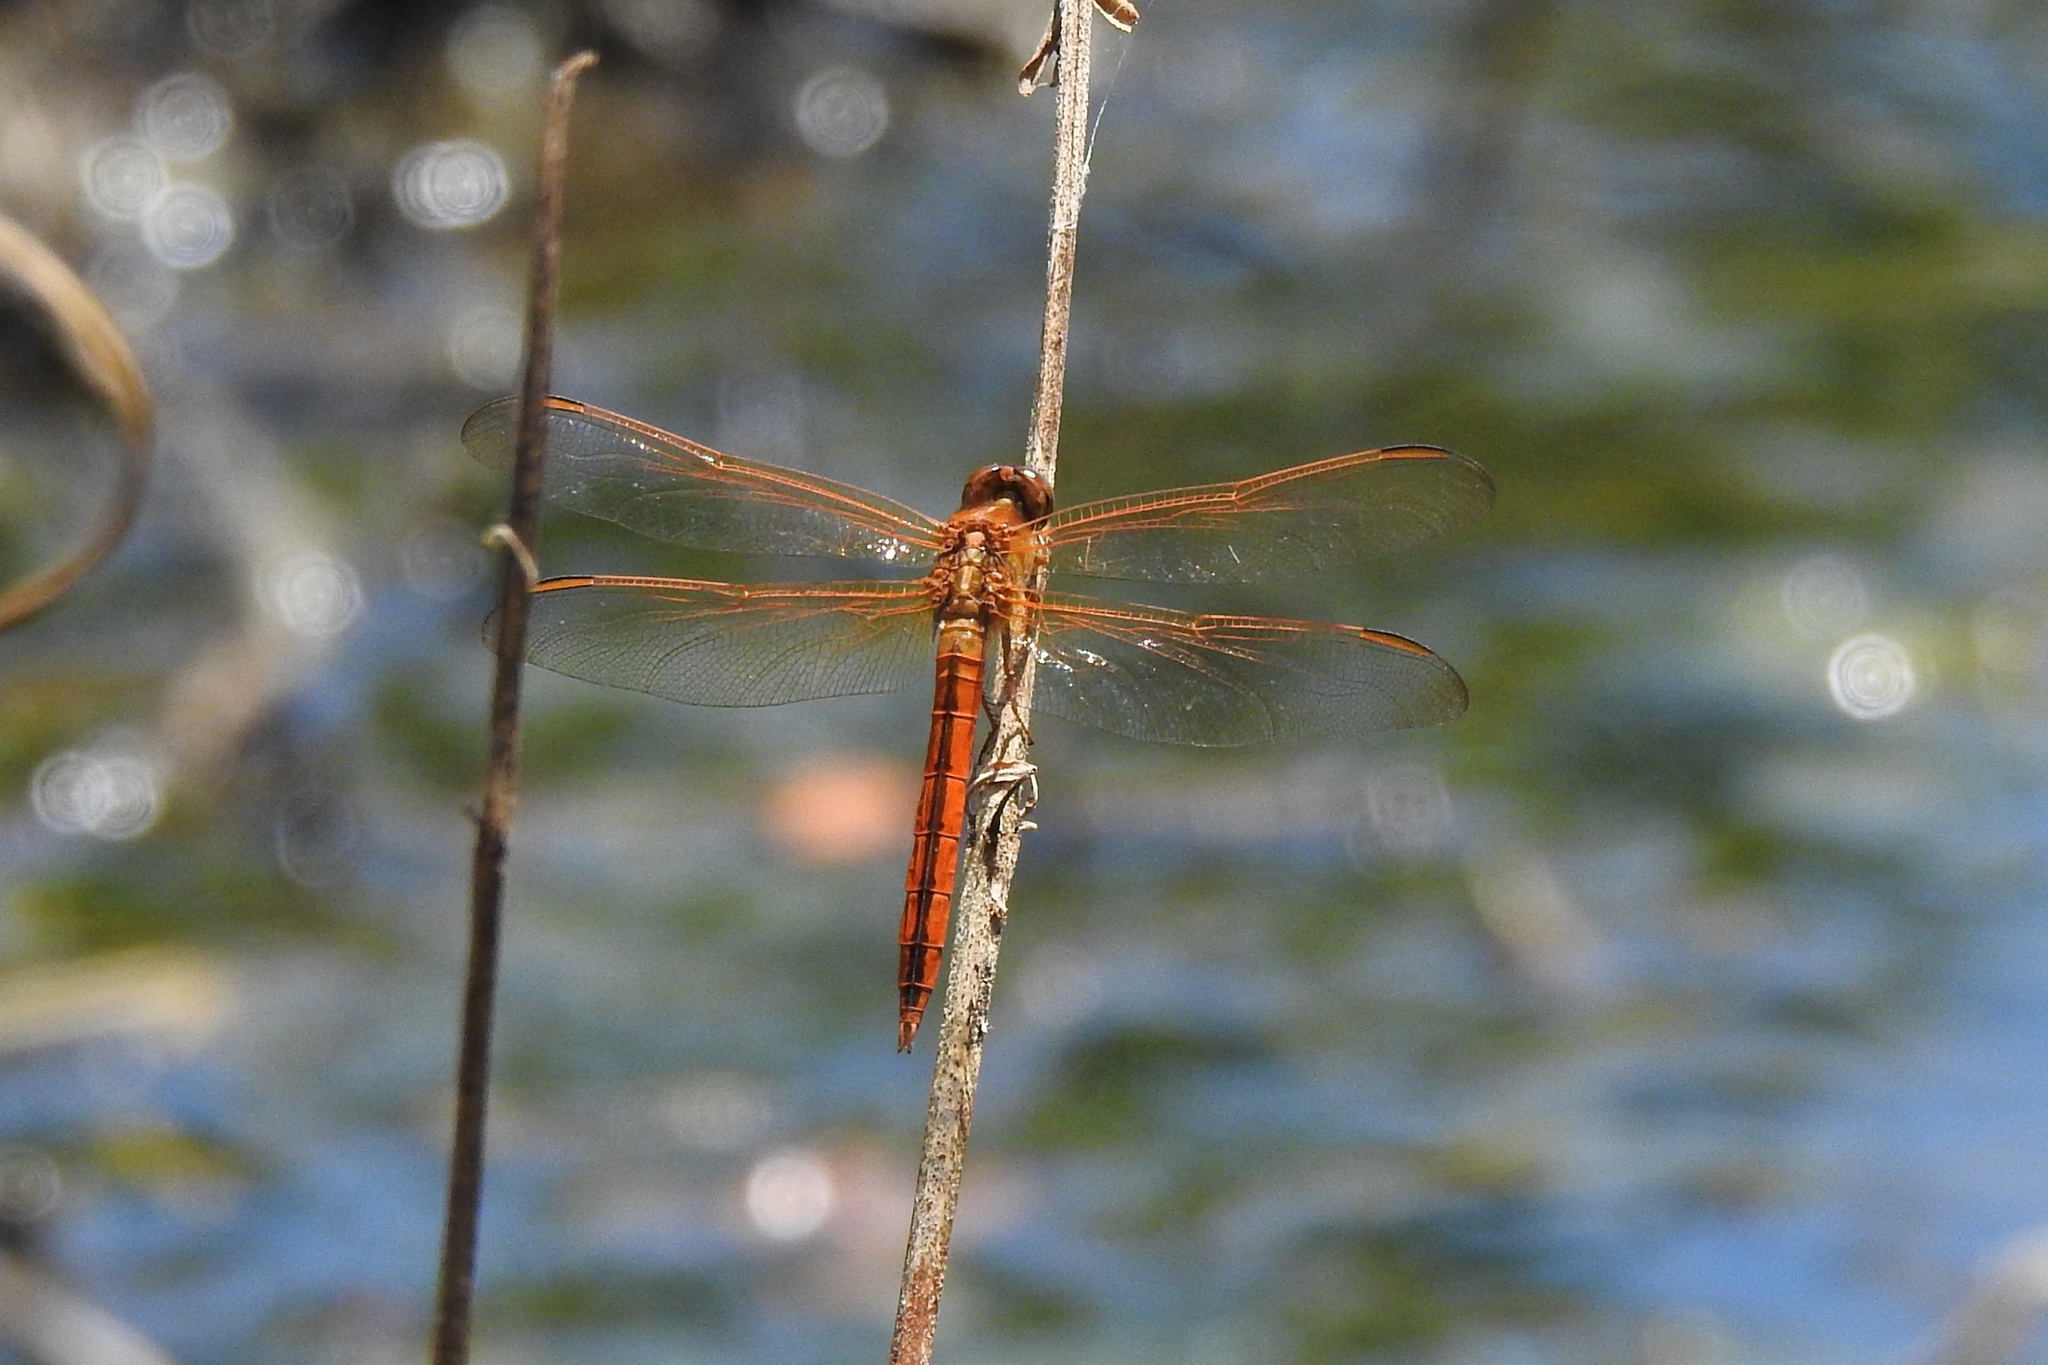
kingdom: Animalia
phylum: Arthropoda
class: Insecta
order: Odonata
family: Libellulidae
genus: Libellula
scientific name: Libellula needhami
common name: Needham's skimmer
